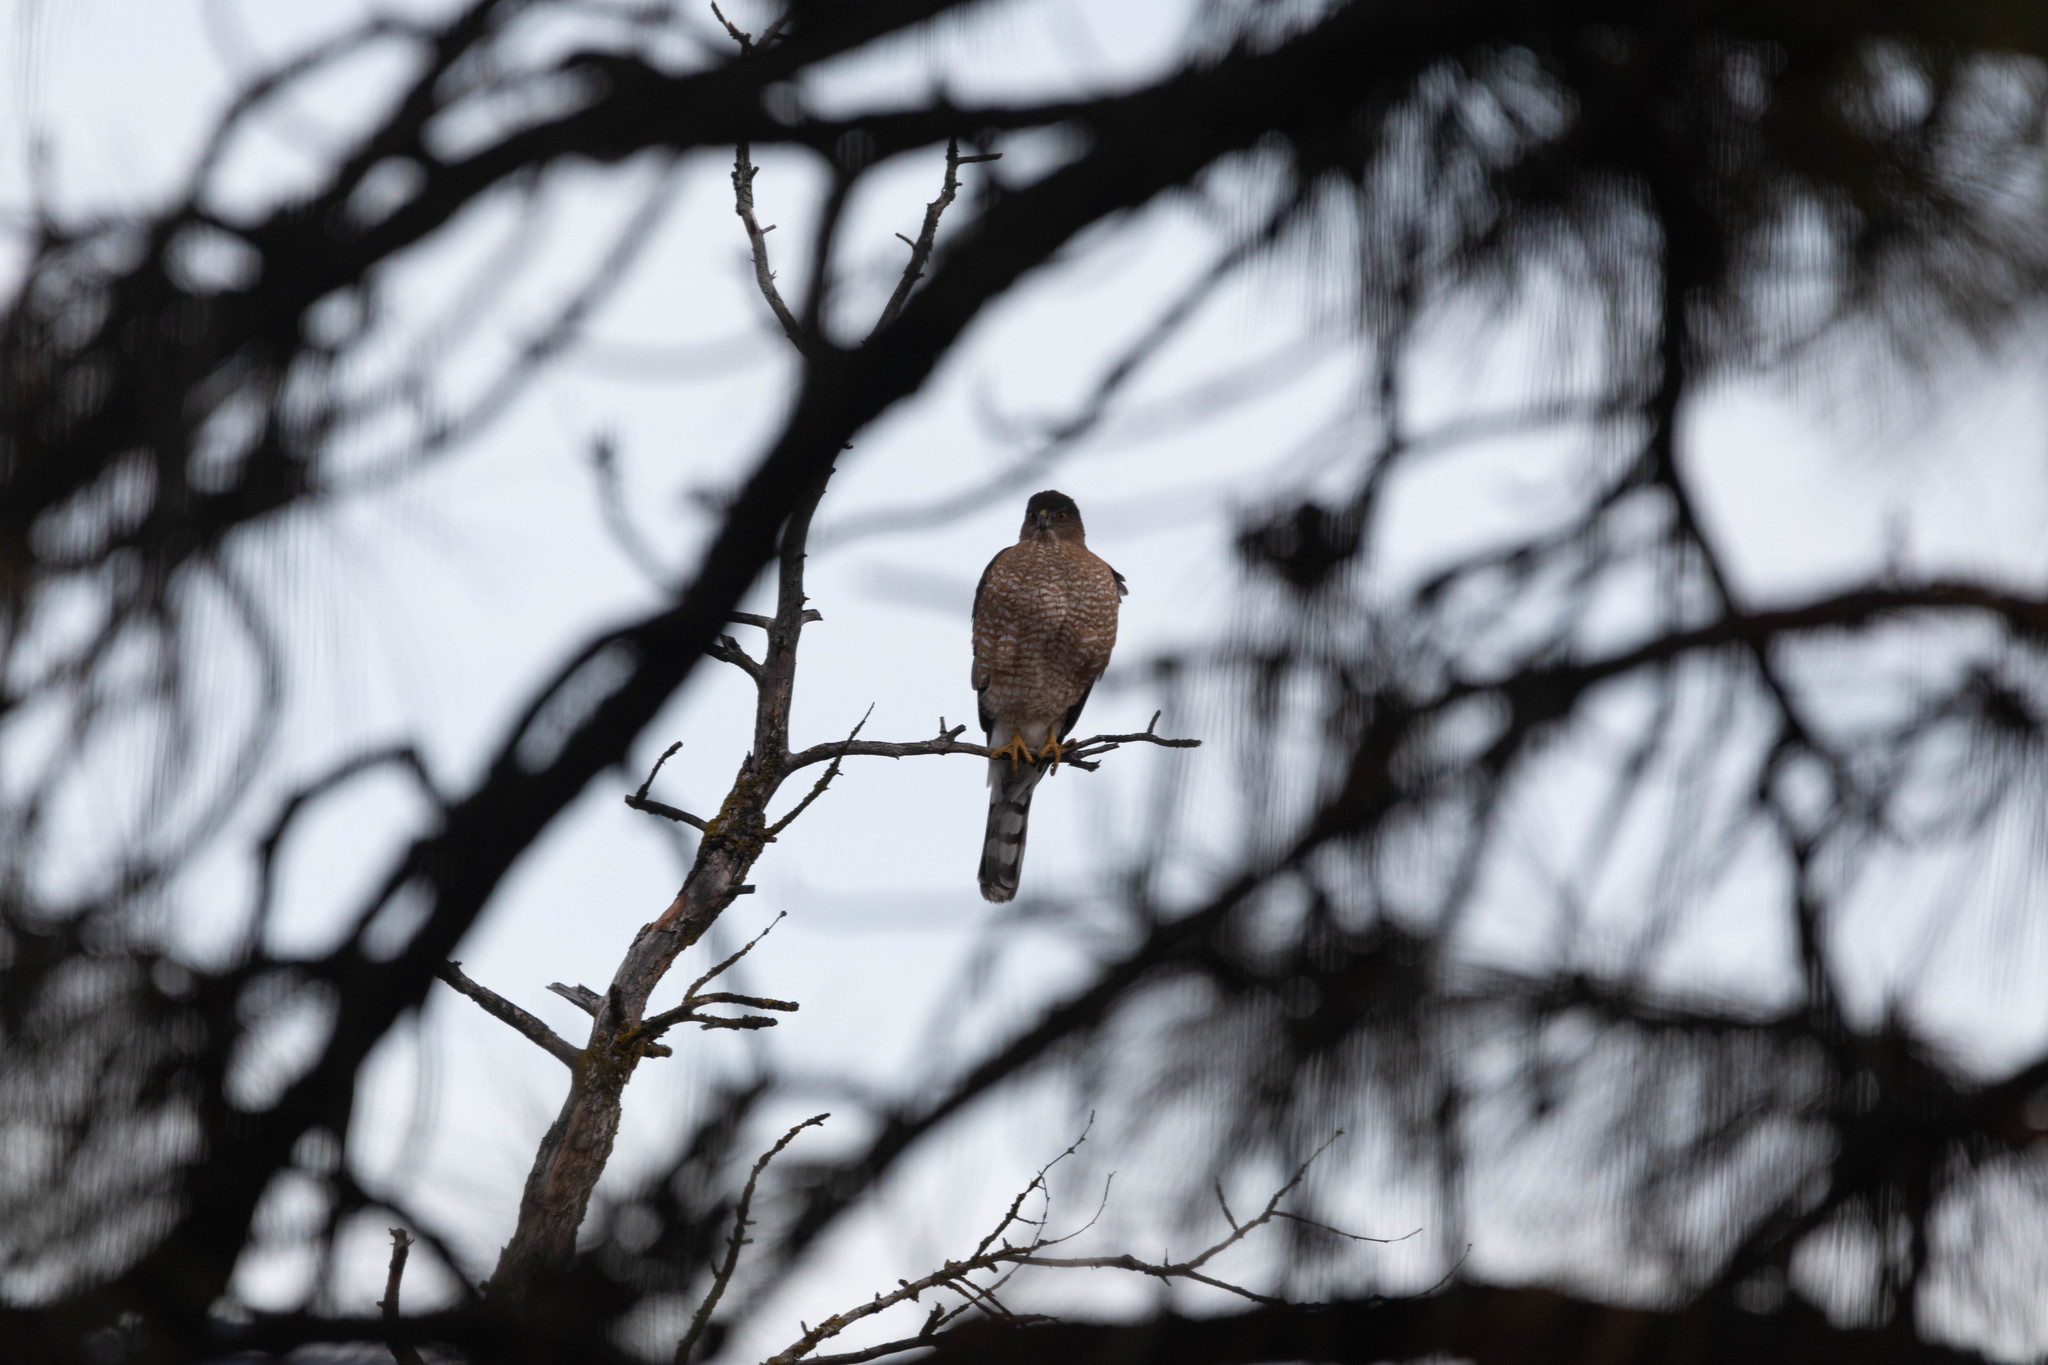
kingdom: Animalia
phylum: Chordata
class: Aves
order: Accipitriformes
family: Accipitridae
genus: Accipiter
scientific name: Accipiter cooperii
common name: Cooper's hawk
